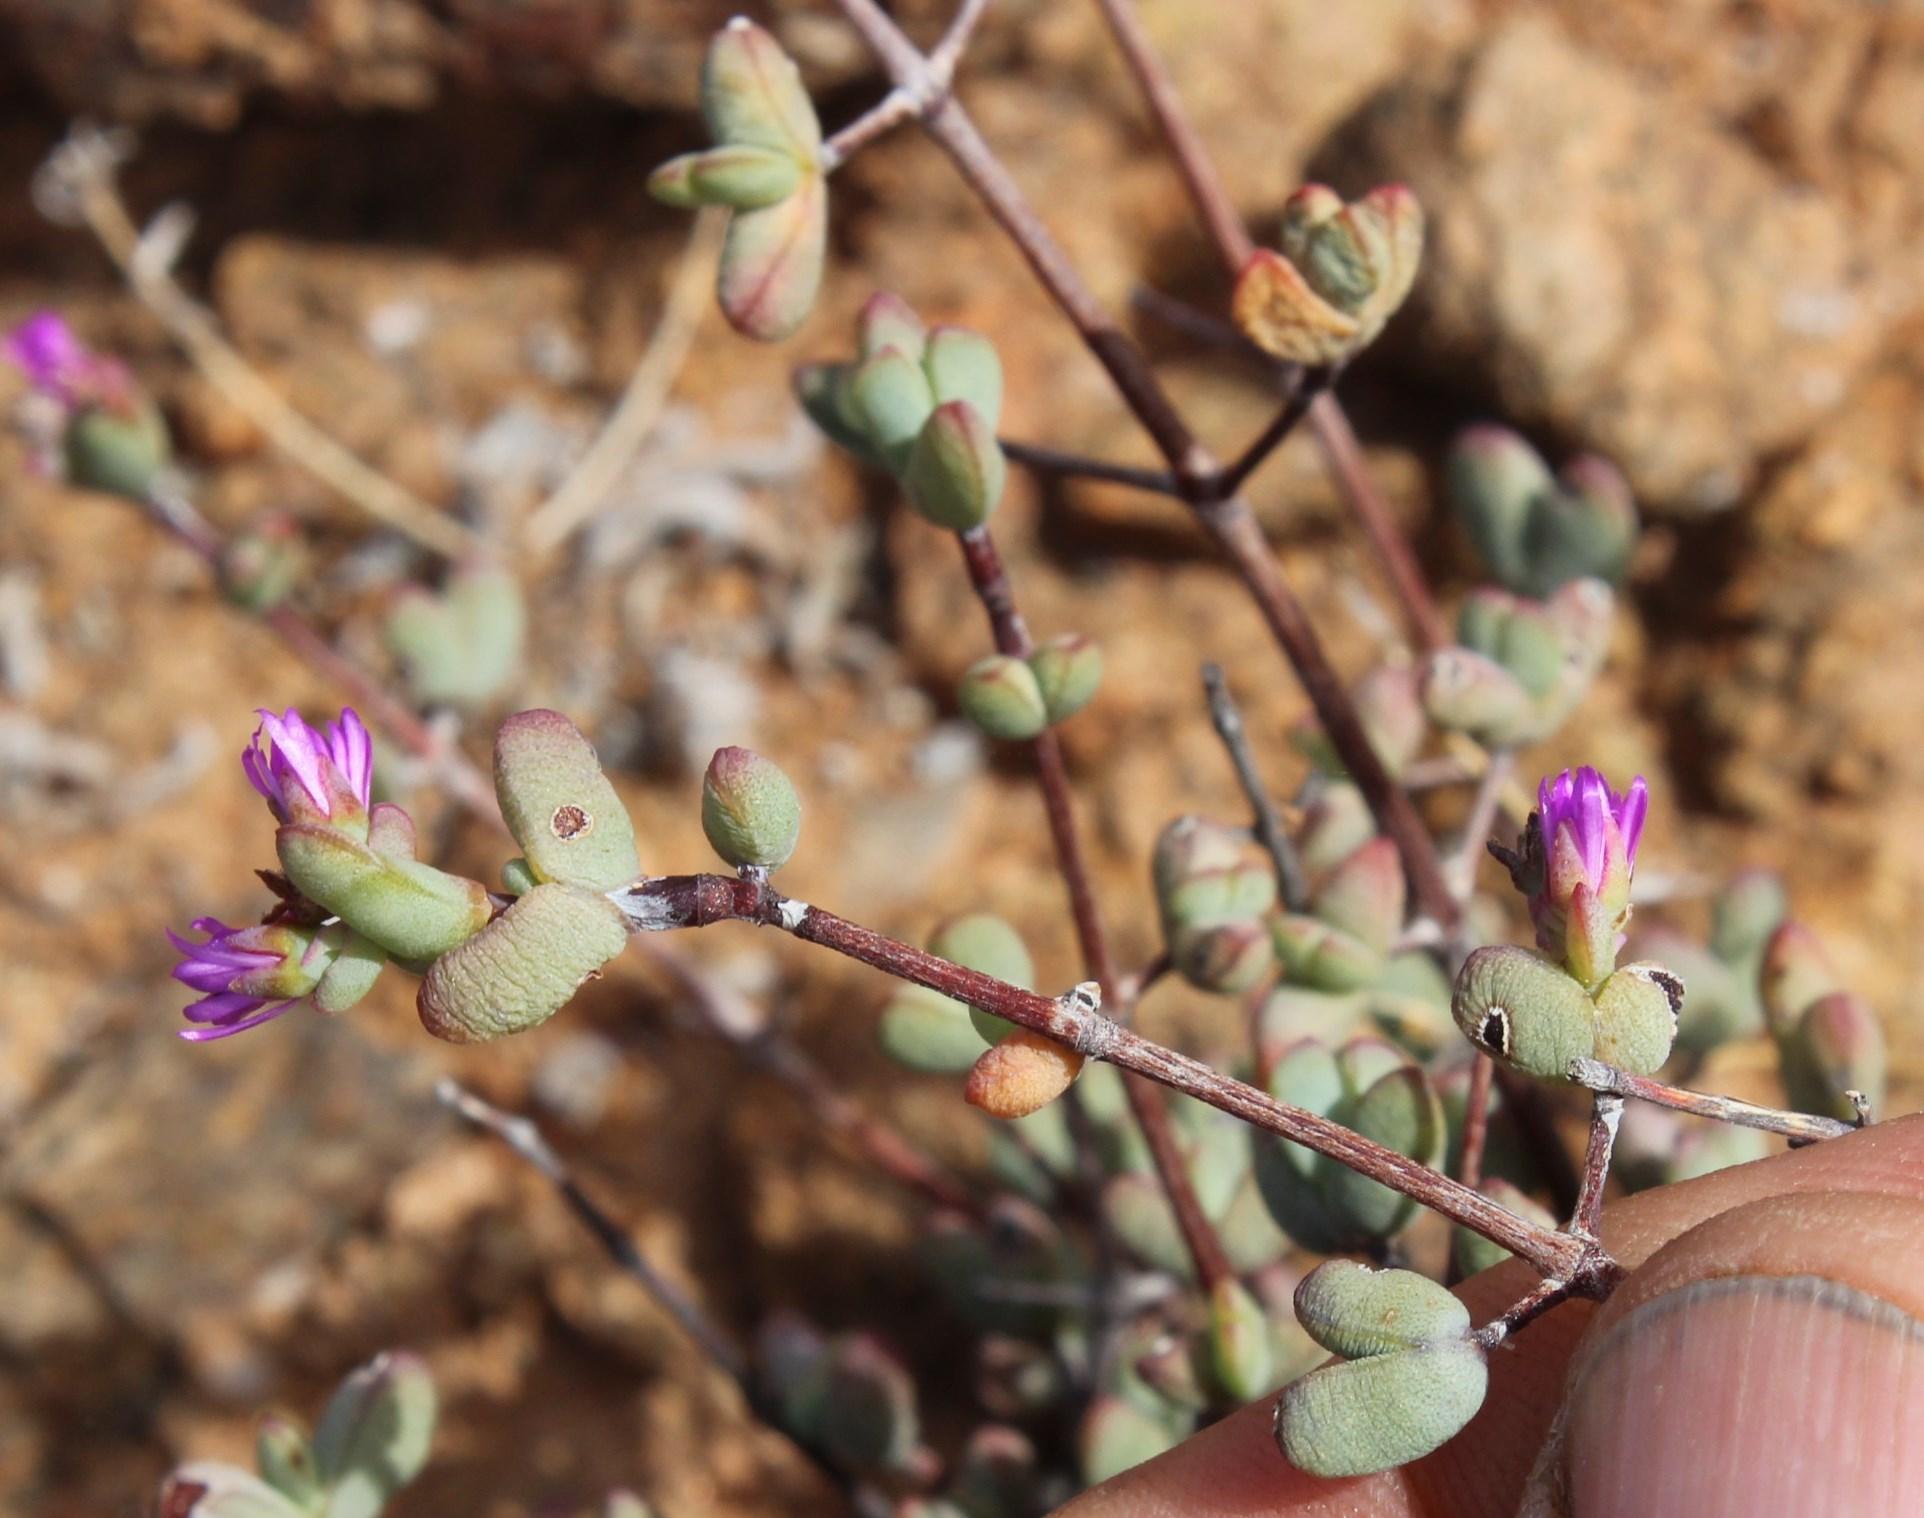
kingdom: Plantae
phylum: Tracheophyta
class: Magnoliopsida
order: Caryophyllales
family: Aizoaceae
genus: Ruschia
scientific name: Ruschia atrata
